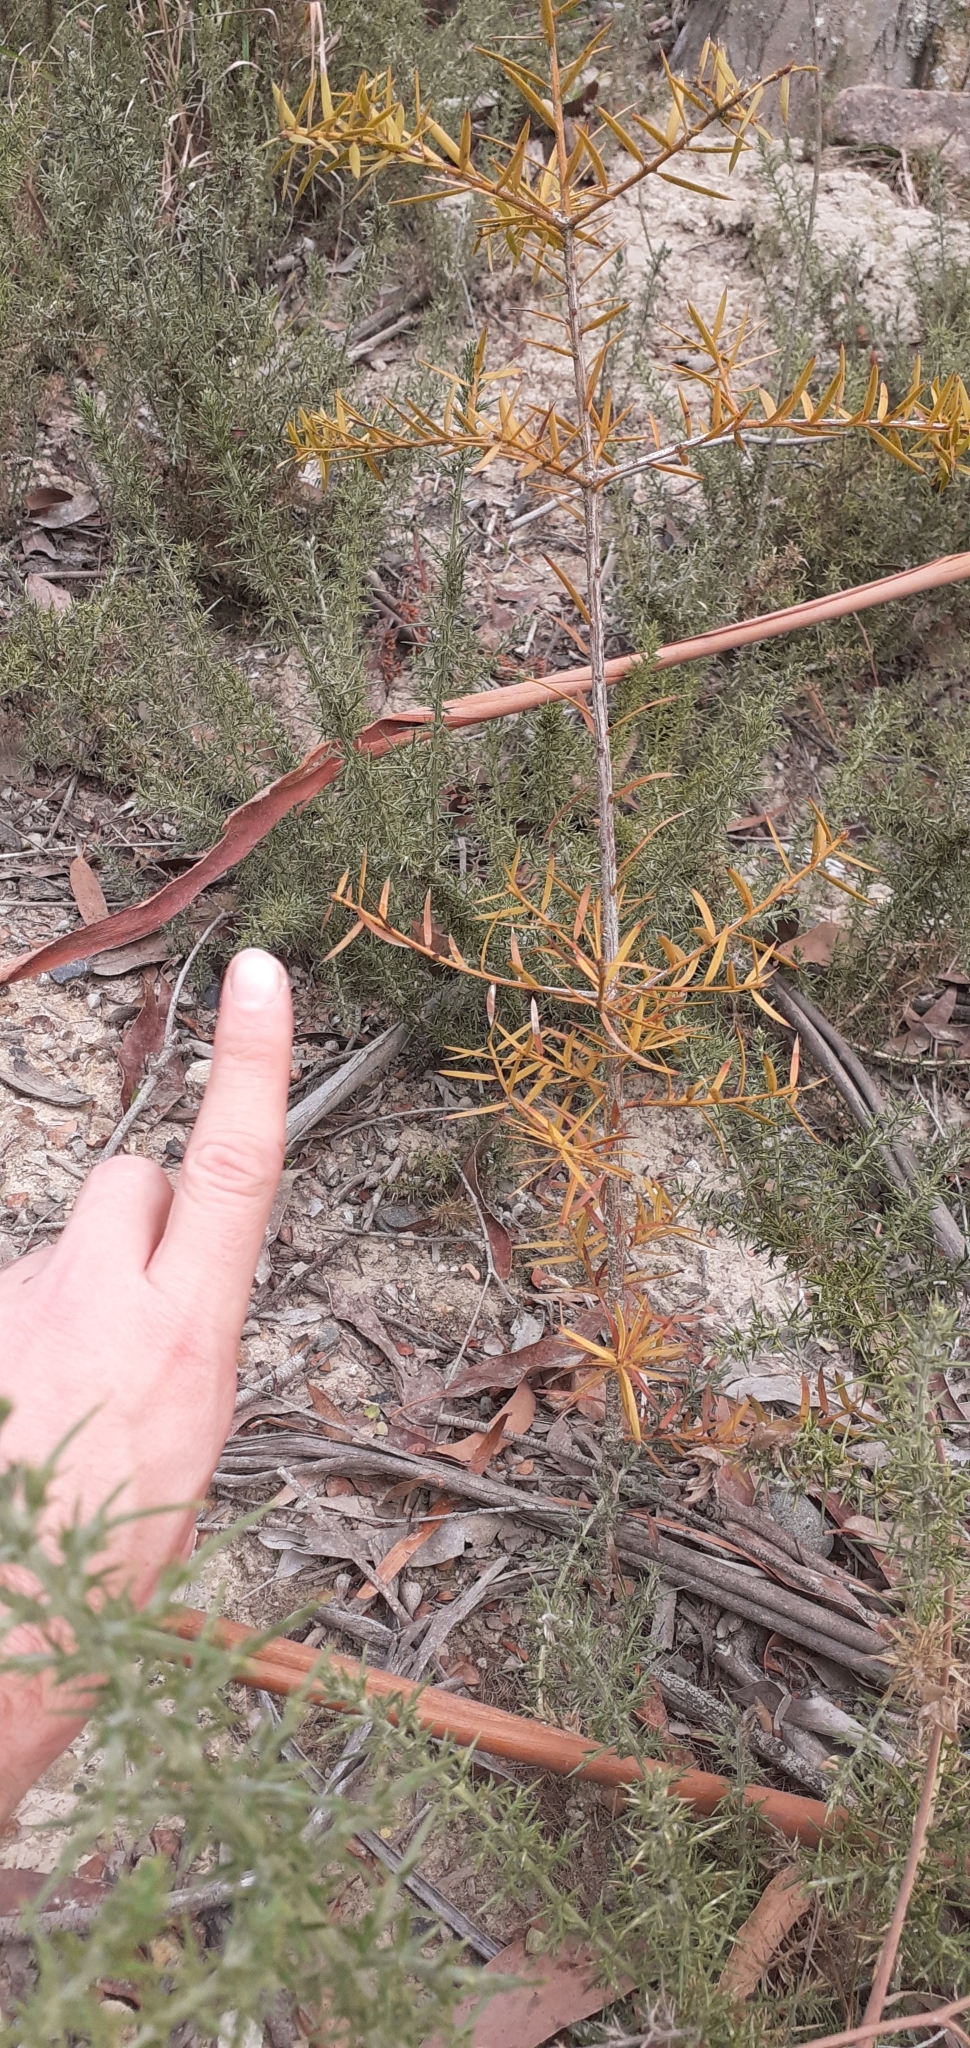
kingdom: Plantae
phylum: Tracheophyta
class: Pinopsida
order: Pinales
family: Podocarpaceae
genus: Podocarpus
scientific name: Podocarpus totara
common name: Totara
